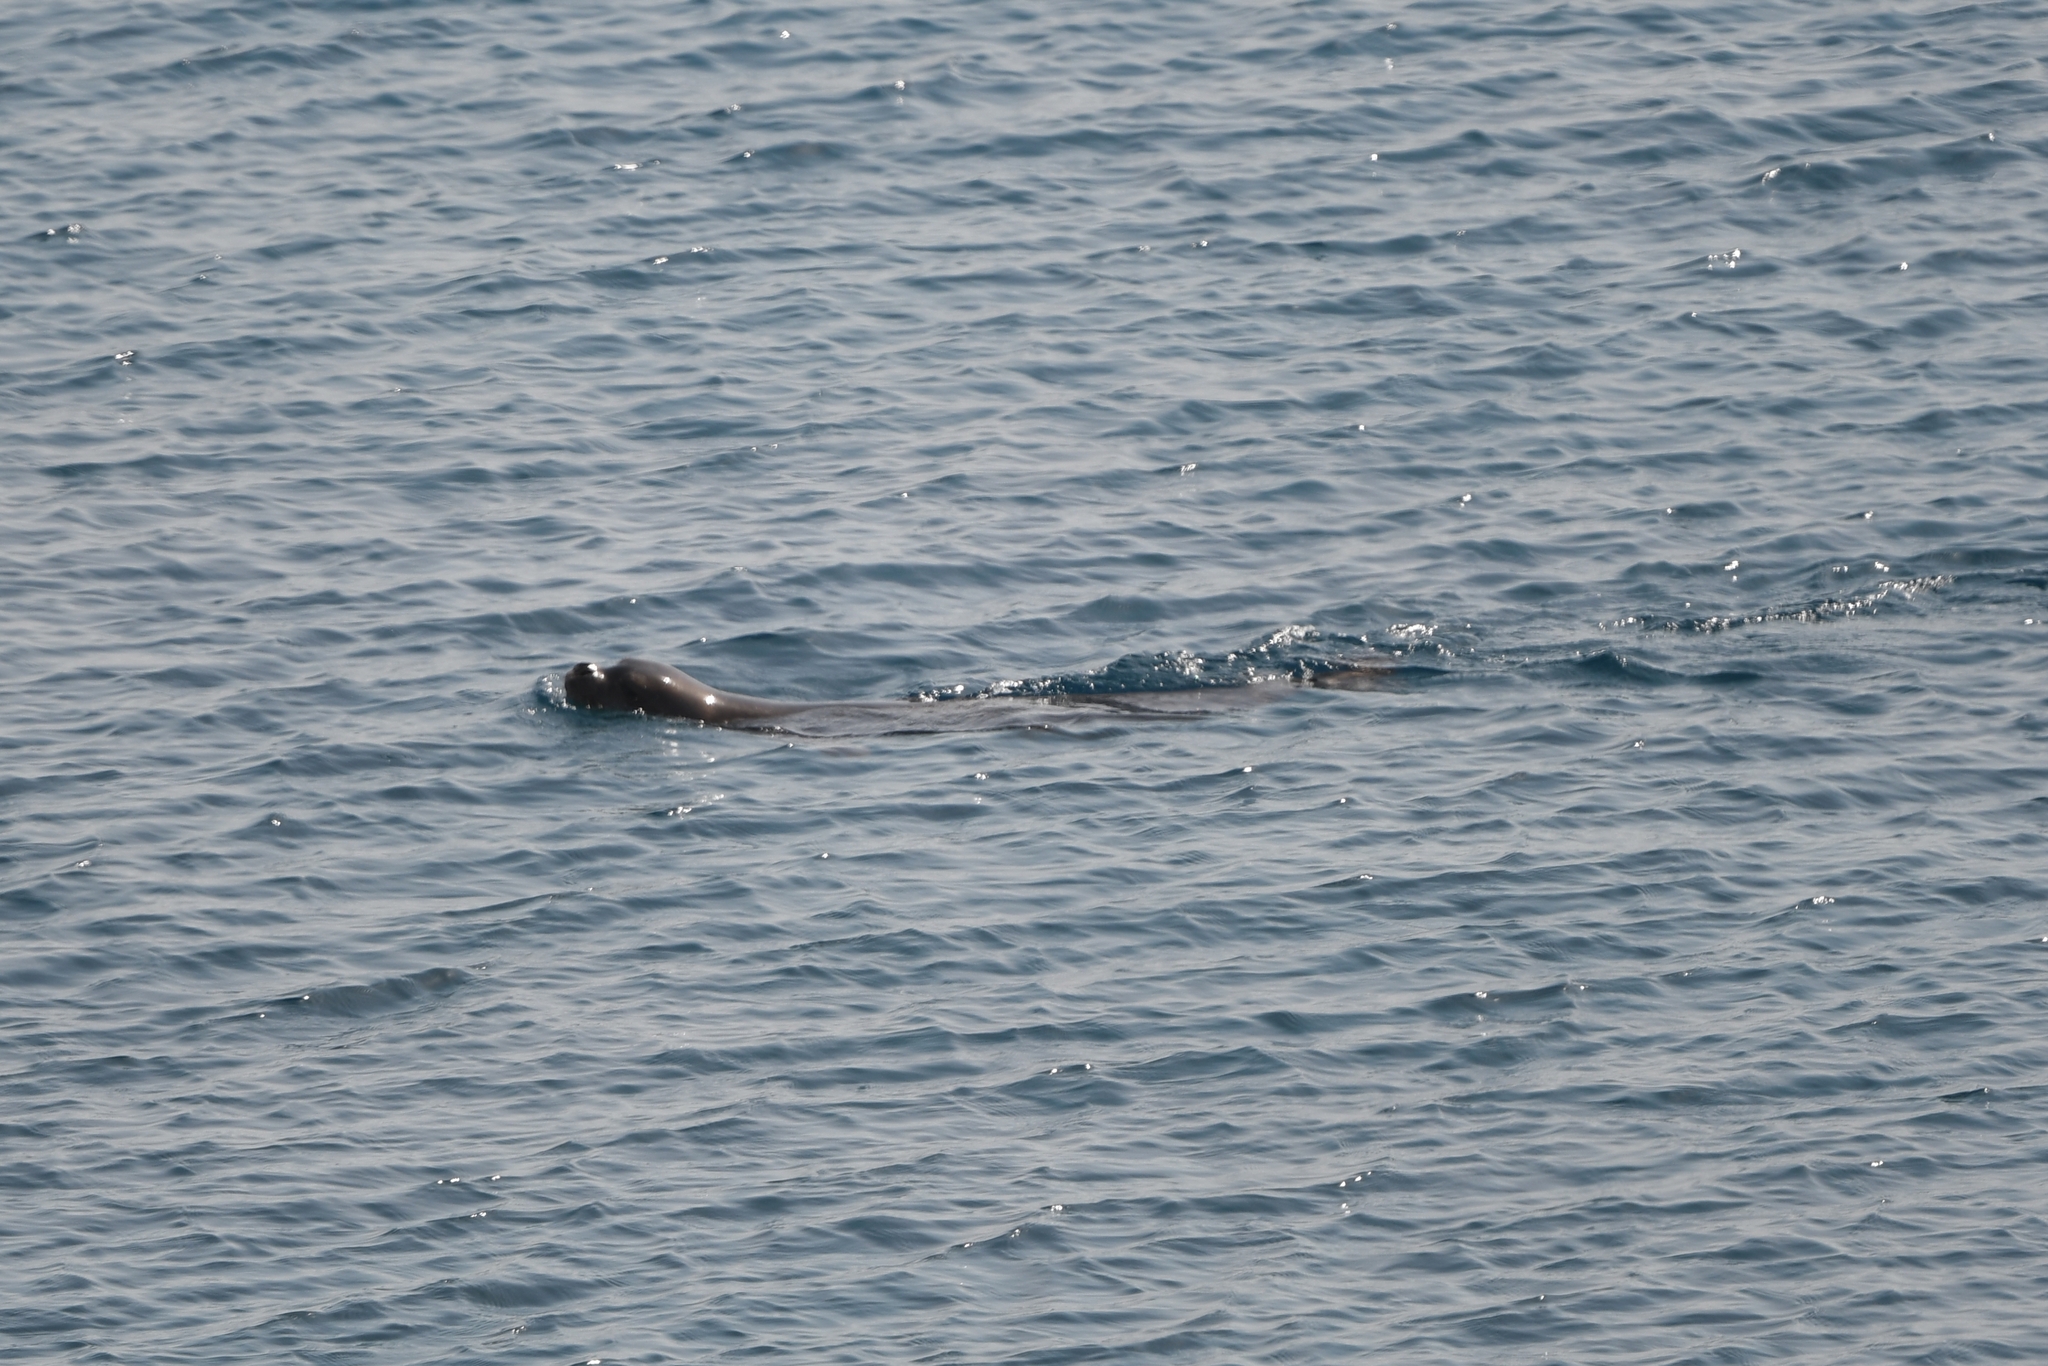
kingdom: Animalia
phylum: Chordata
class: Mammalia
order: Carnivora
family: Phocidae
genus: Monachus
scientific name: Monachus monachus
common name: Mediterranean monk seal
